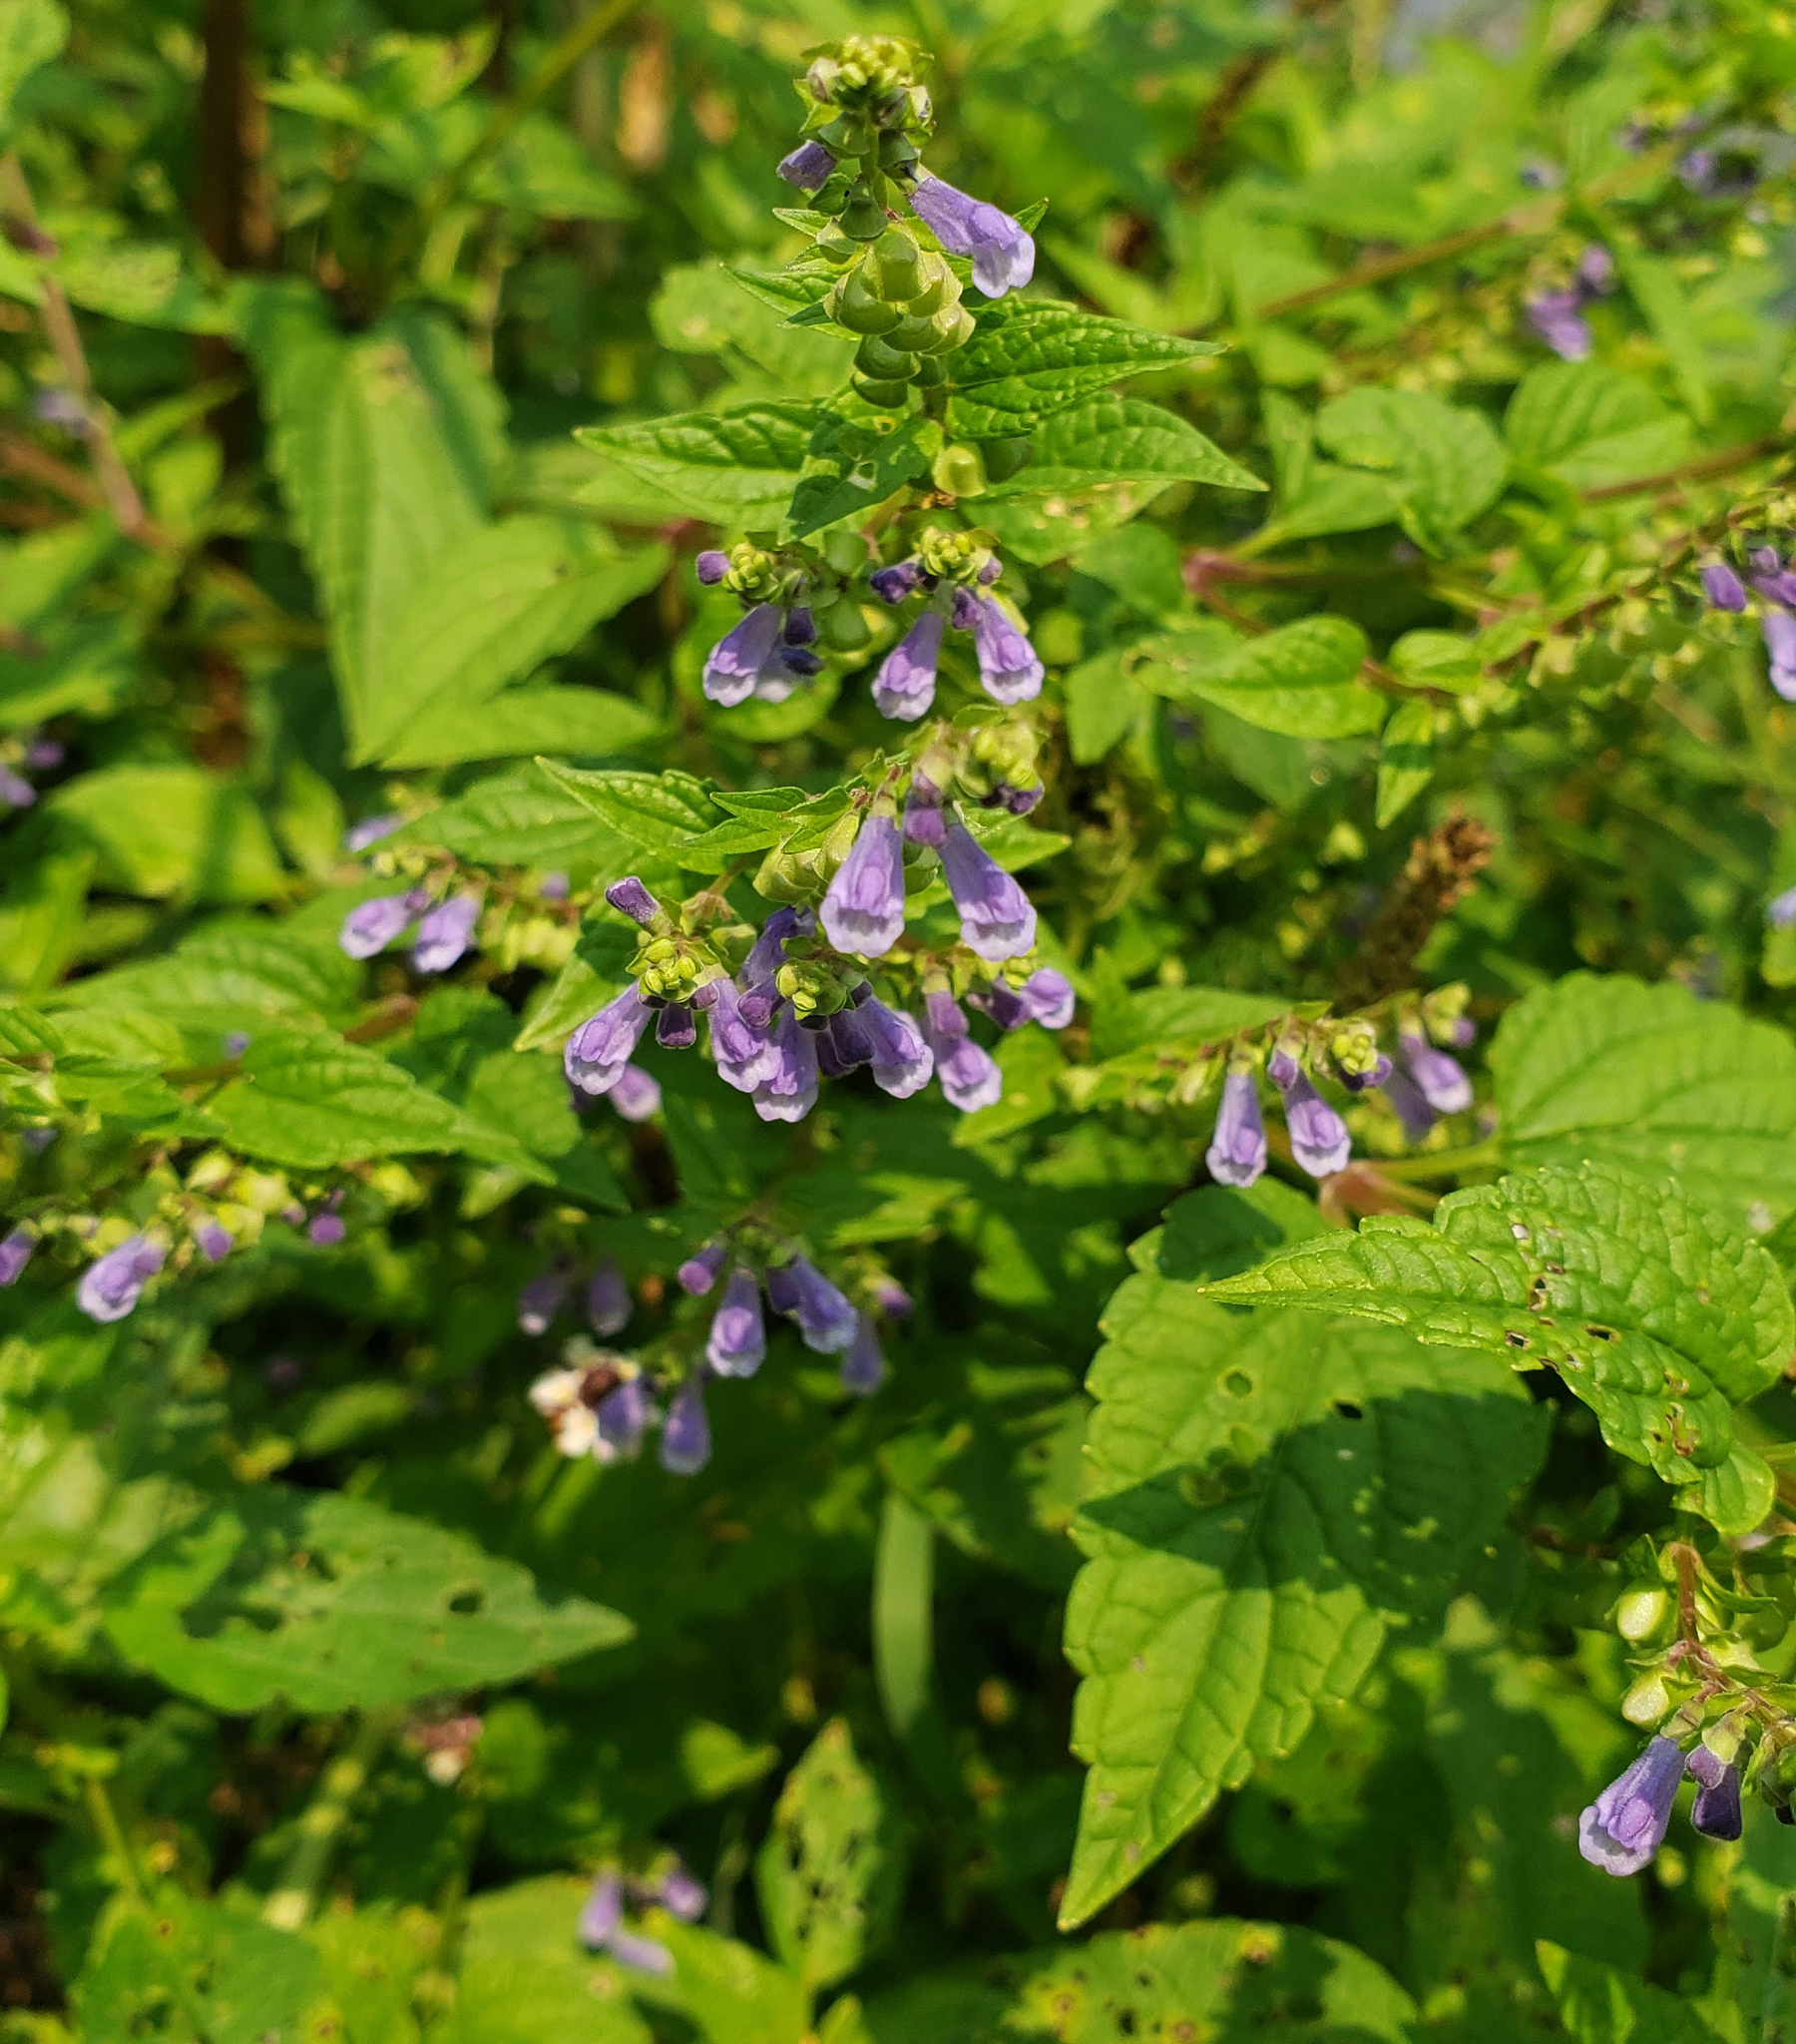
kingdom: Plantae
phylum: Tracheophyta
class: Magnoliopsida
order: Lamiales
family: Lamiaceae
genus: Scutellaria
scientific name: Scutellaria lateriflora
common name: Blue skullcap
